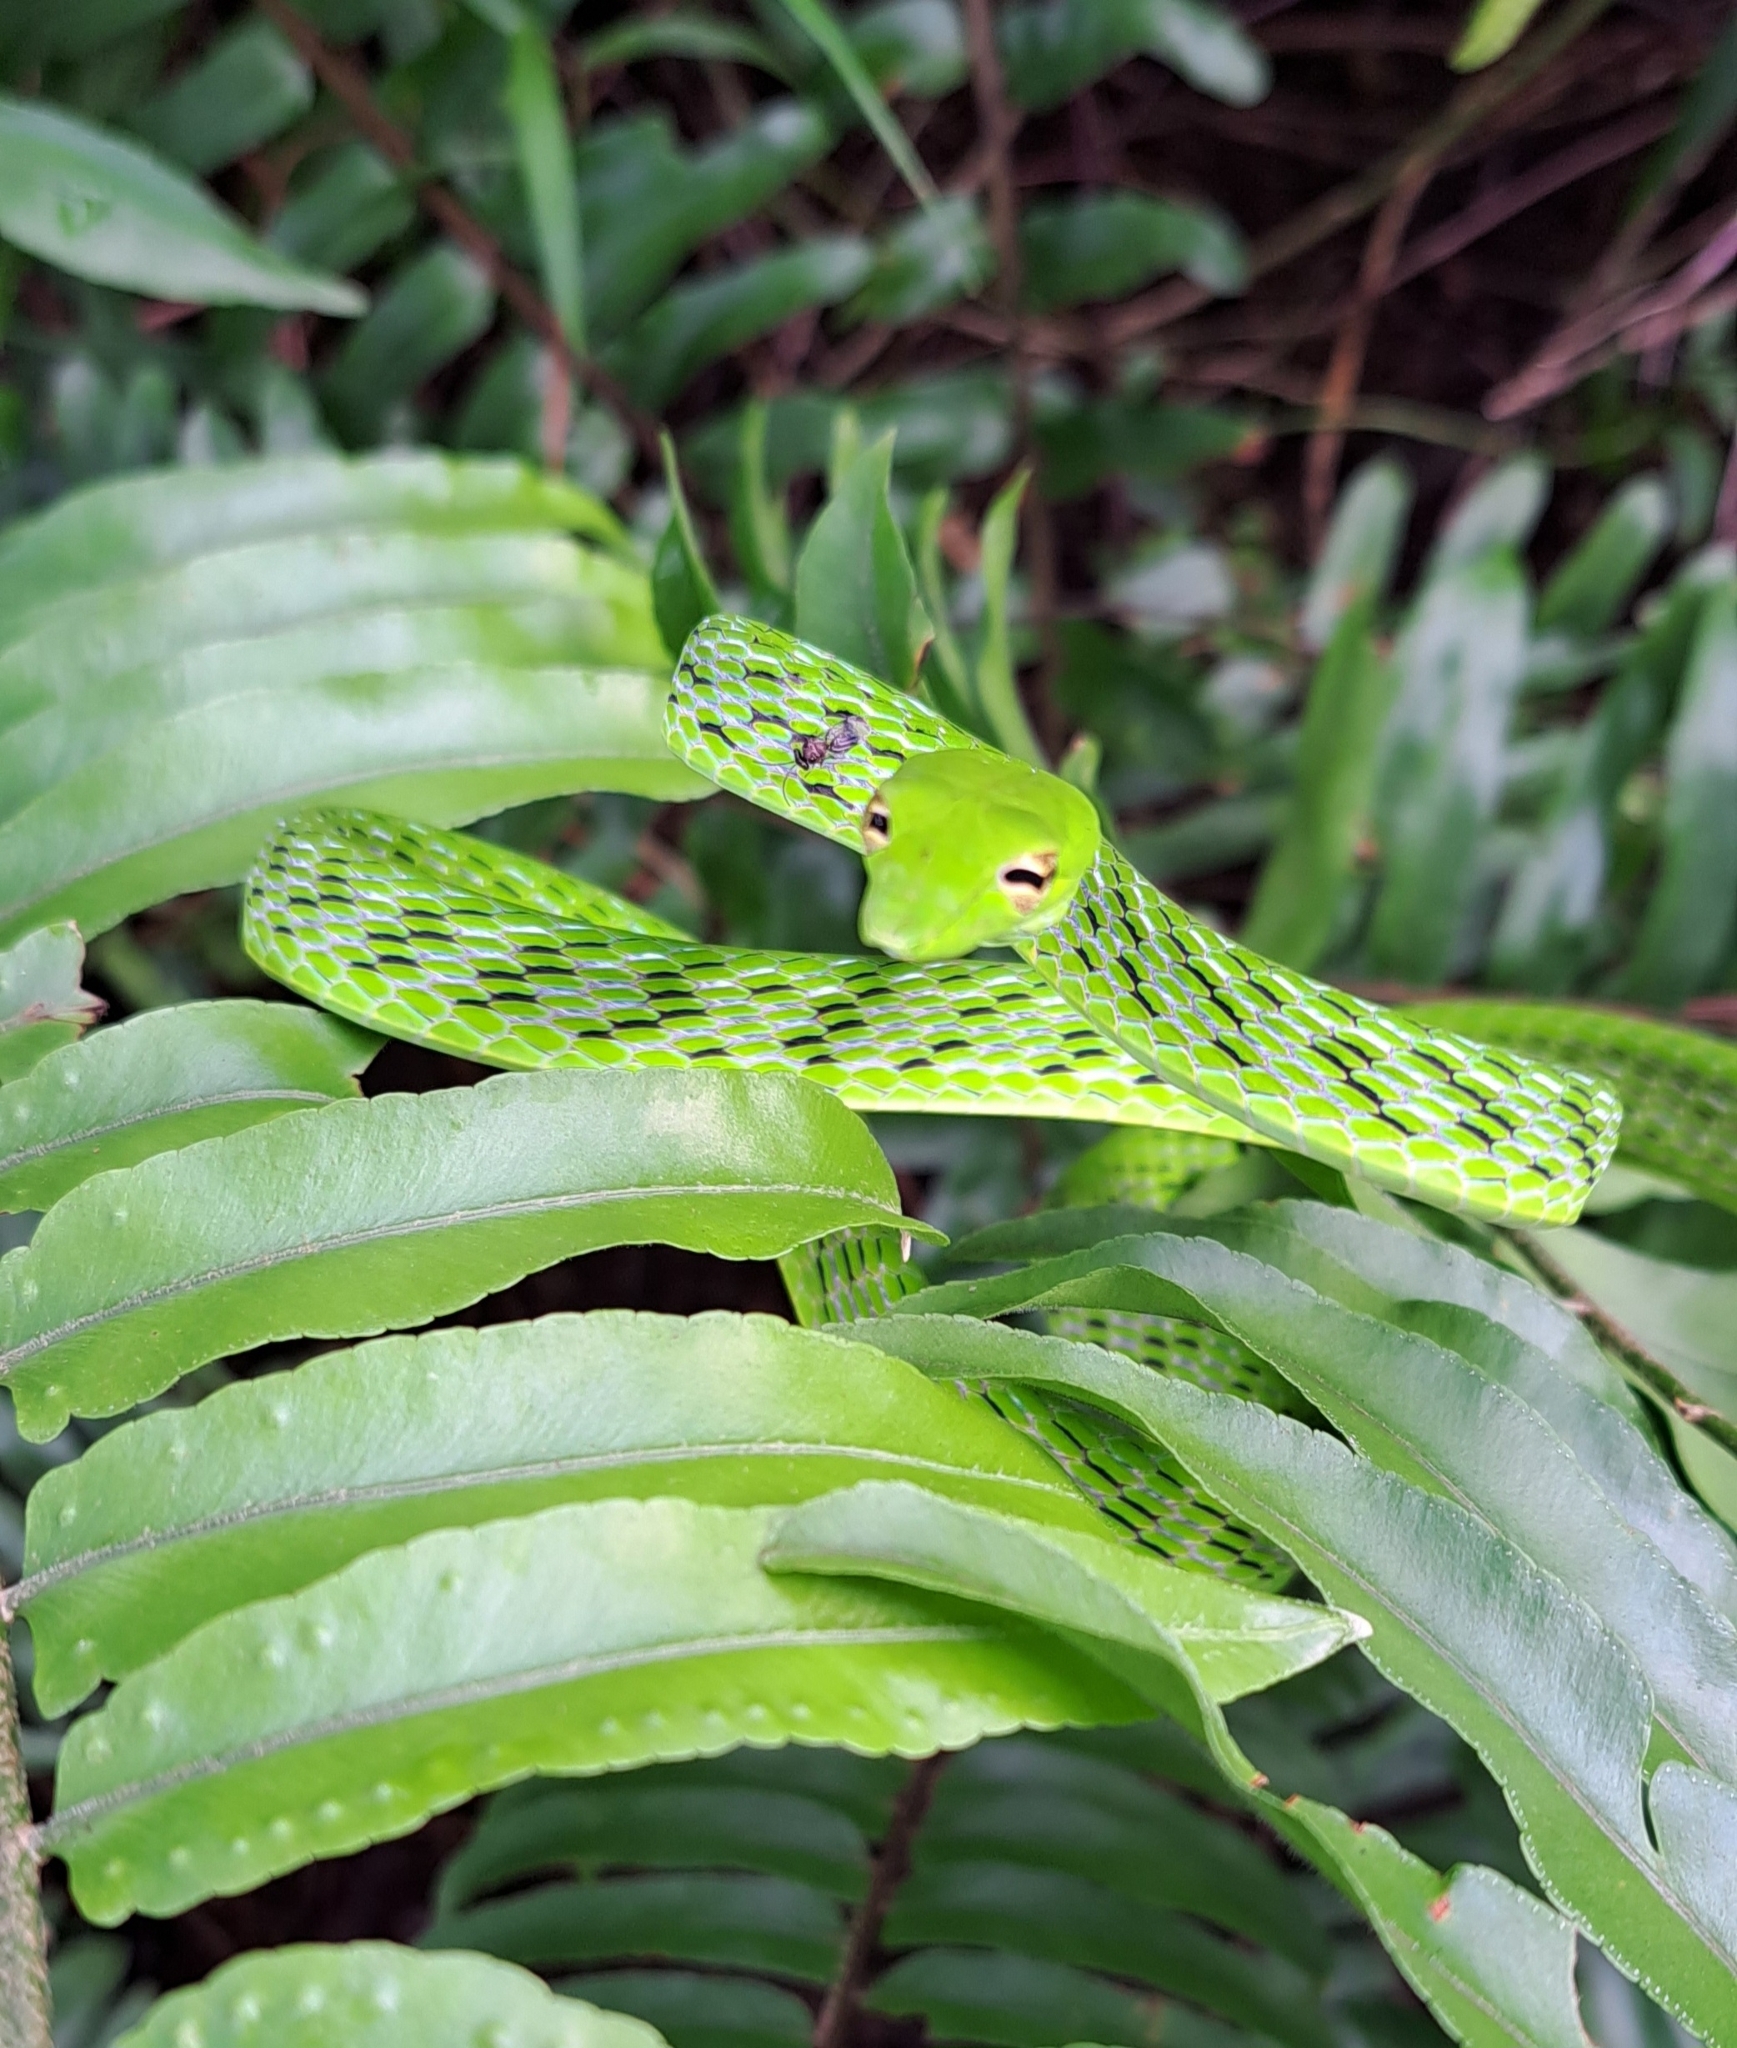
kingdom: Animalia
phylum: Chordata
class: Squamata
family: Colubridae
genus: Ahaetulla
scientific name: Ahaetulla prasina
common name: Oriental whip snake
